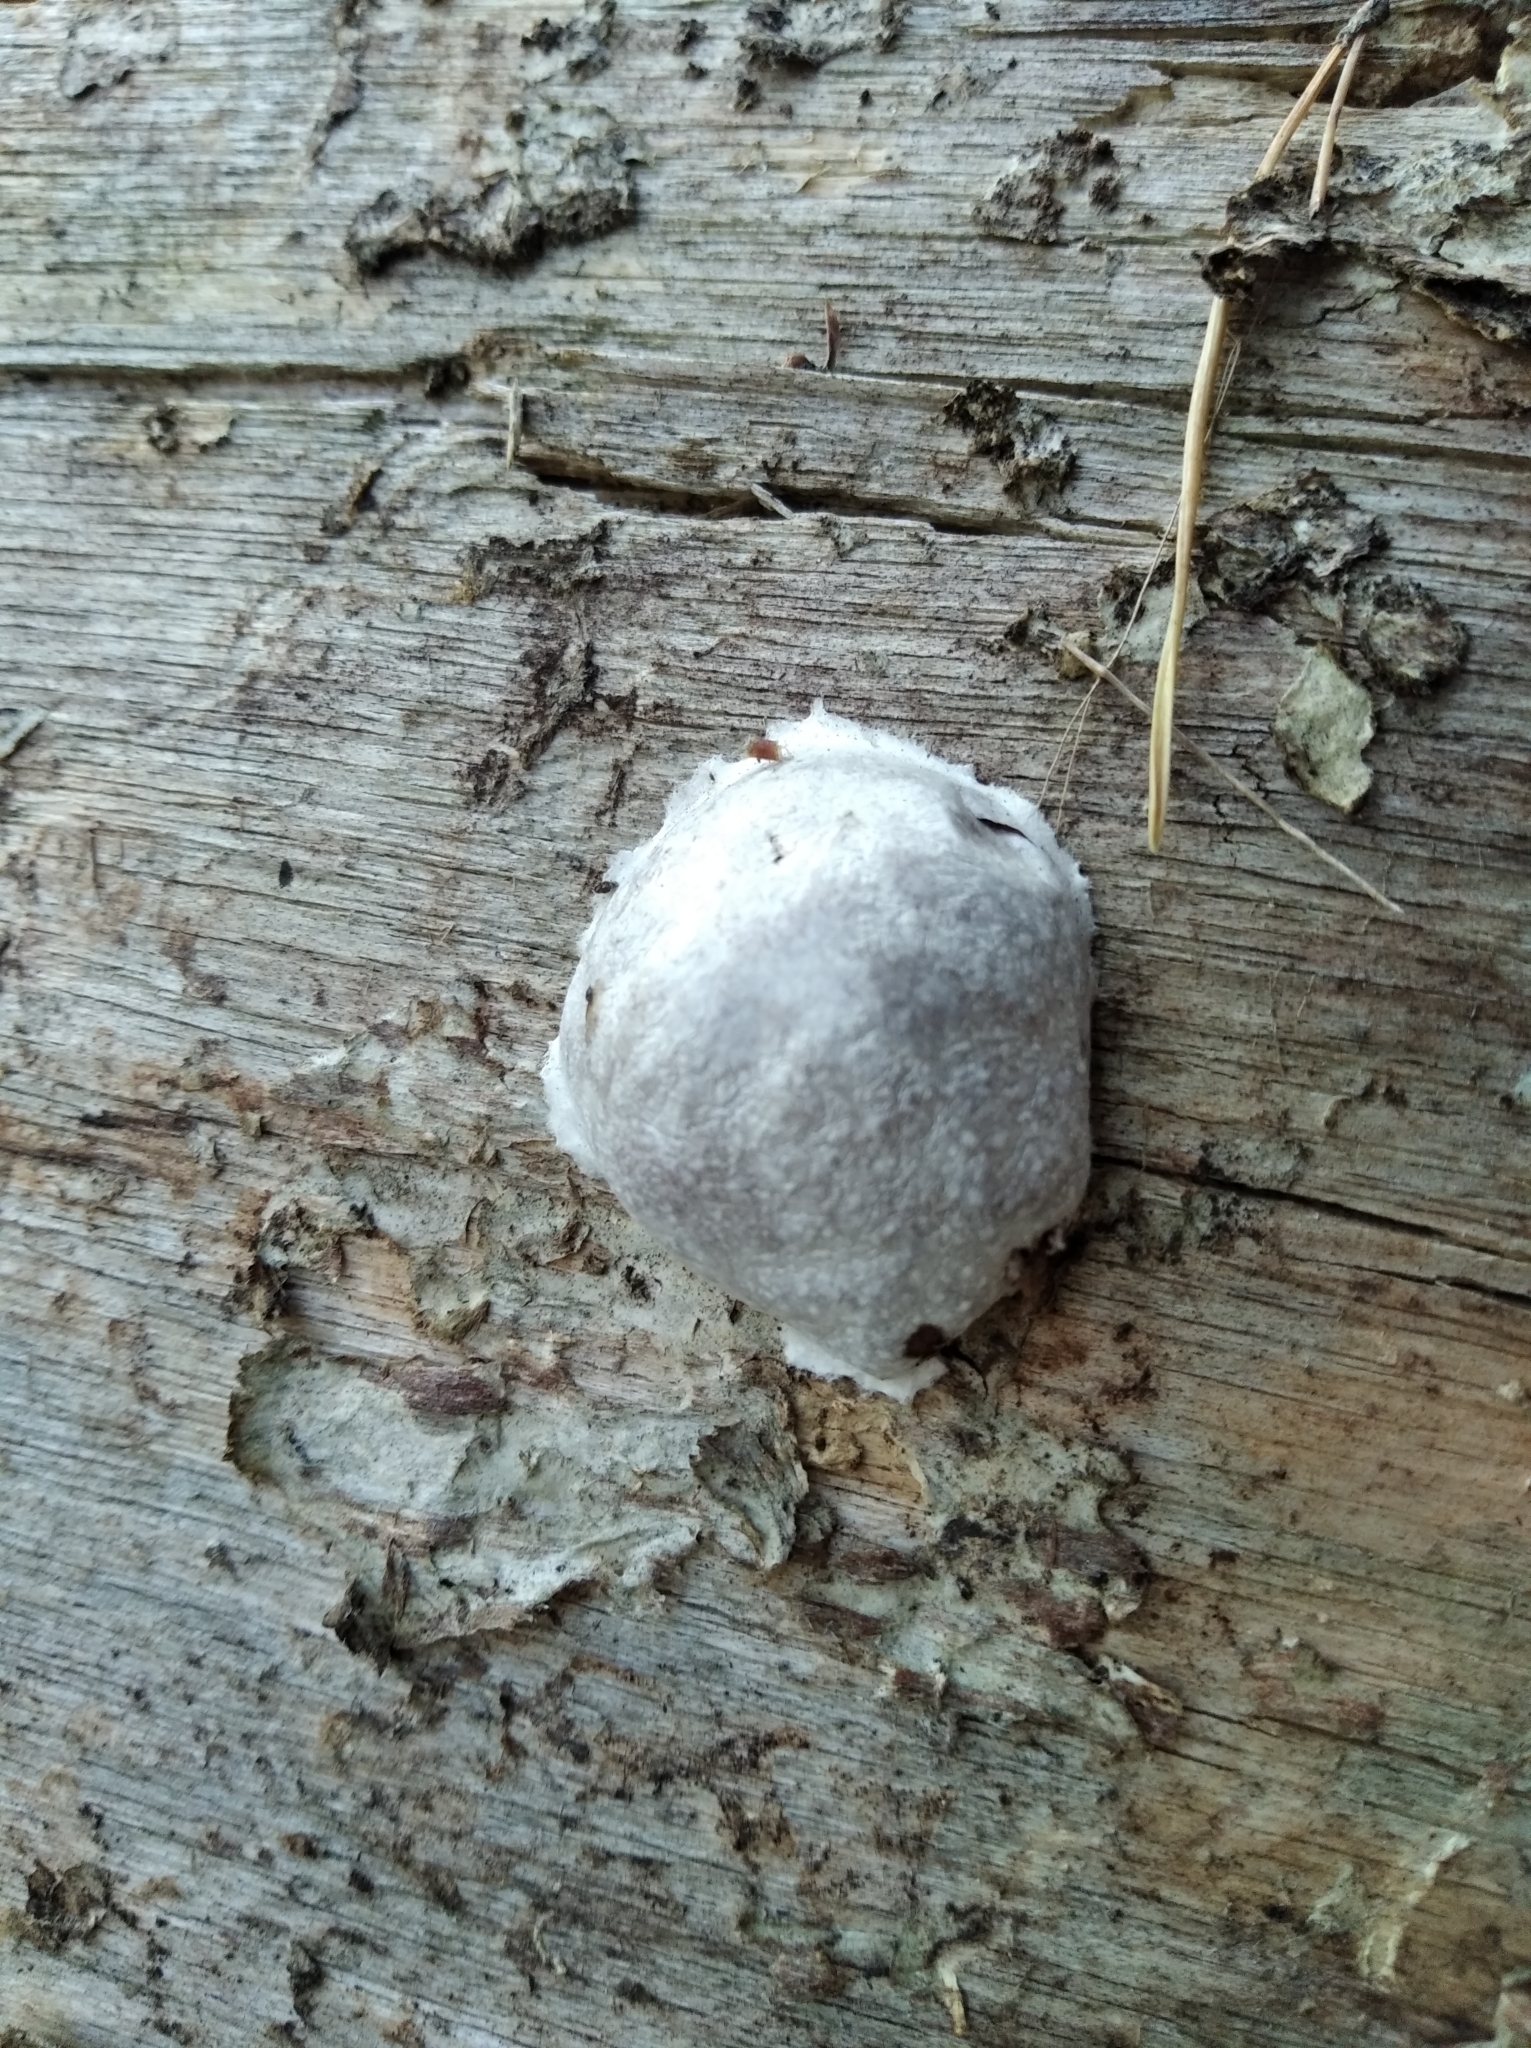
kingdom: Protozoa
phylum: Mycetozoa
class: Myxomycetes
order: Cribrariales
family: Tubiferaceae
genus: Reticularia
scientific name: Reticularia lycoperdon
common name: False puffball
